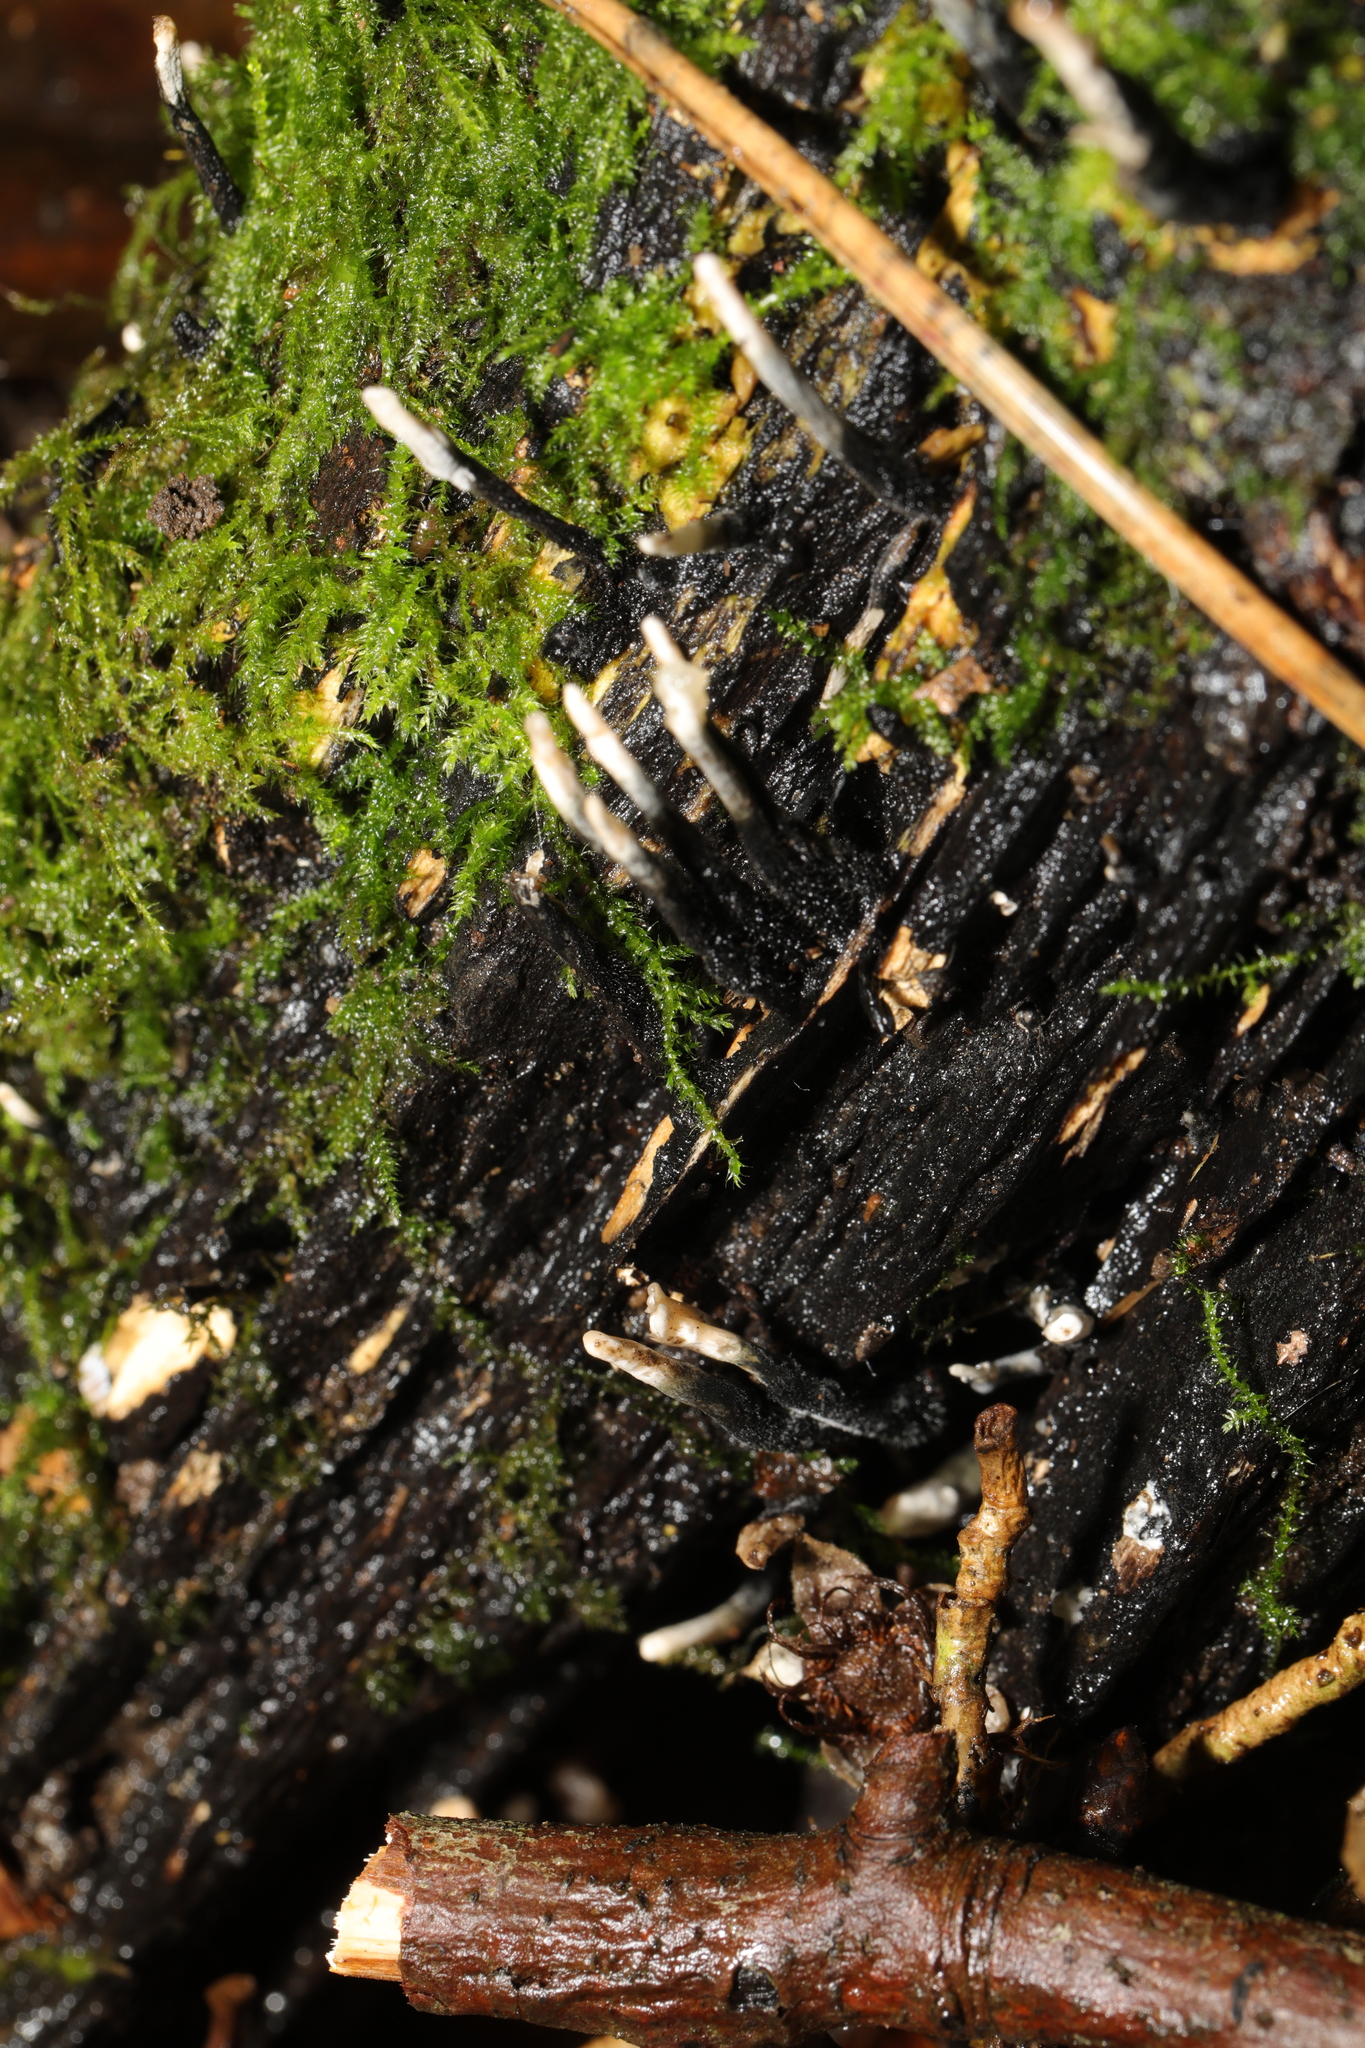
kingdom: Fungi
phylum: Ascomycota
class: Sordariomycetes
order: Xylariales
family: Xylariaceae
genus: Xylaria
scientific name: Xylaria hypoxylon
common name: Candle-snuff fungus
